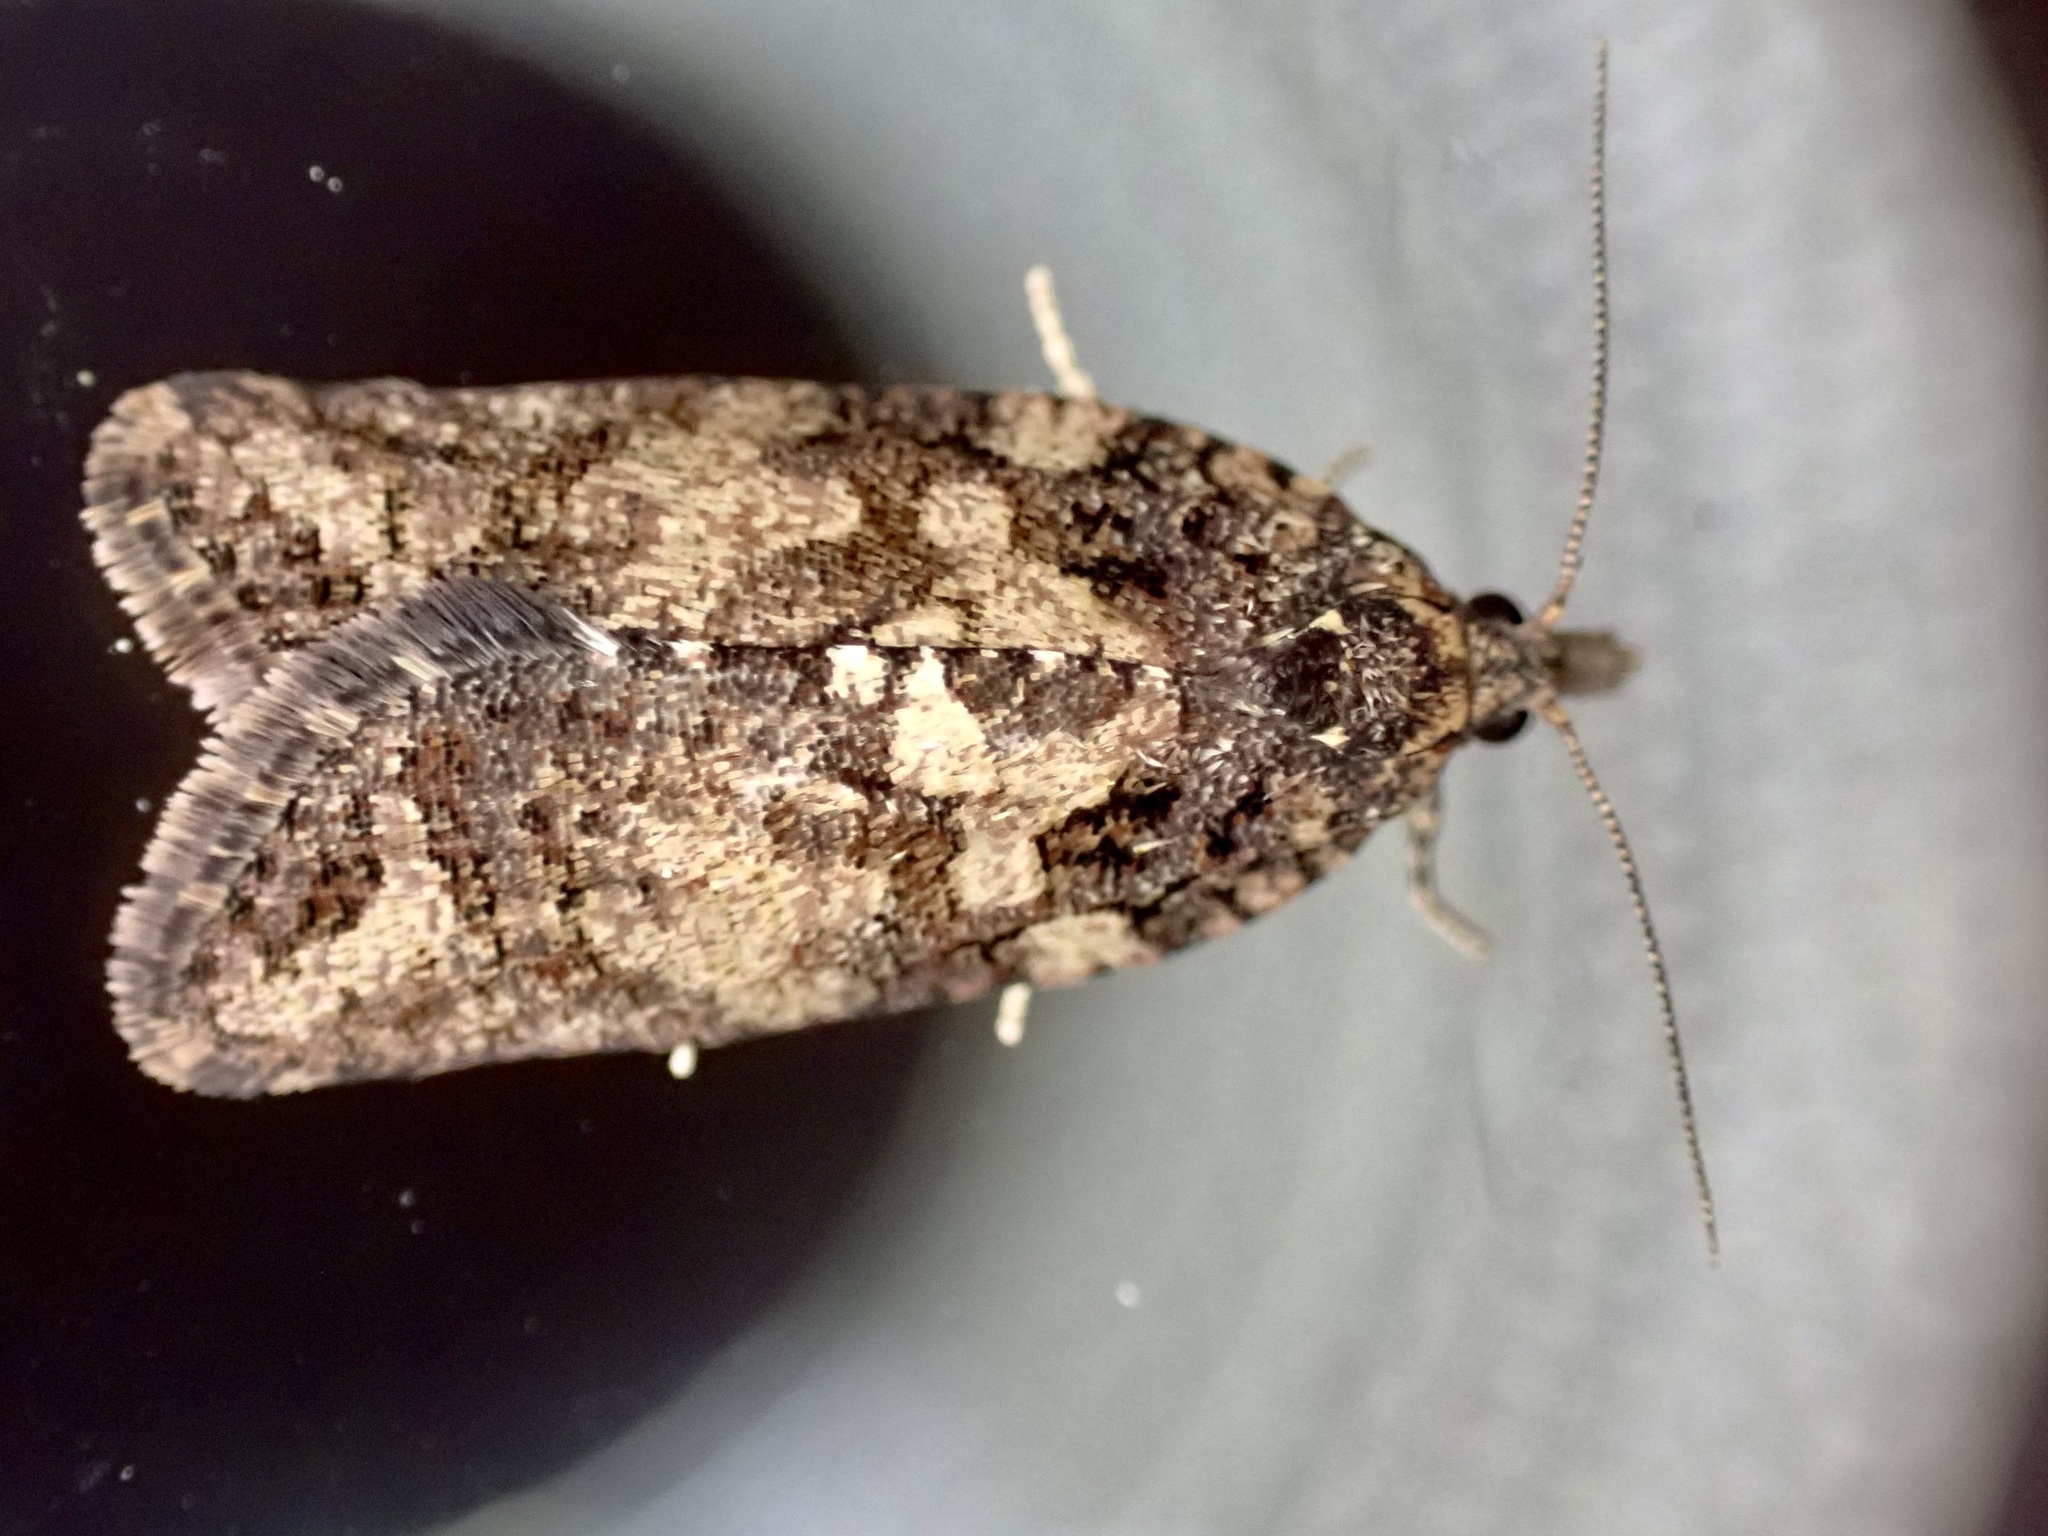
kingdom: Animalia
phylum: Arthropoda
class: Insecta
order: Lepidoptera
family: Tortricidae
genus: Capua
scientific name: Capua intractana
